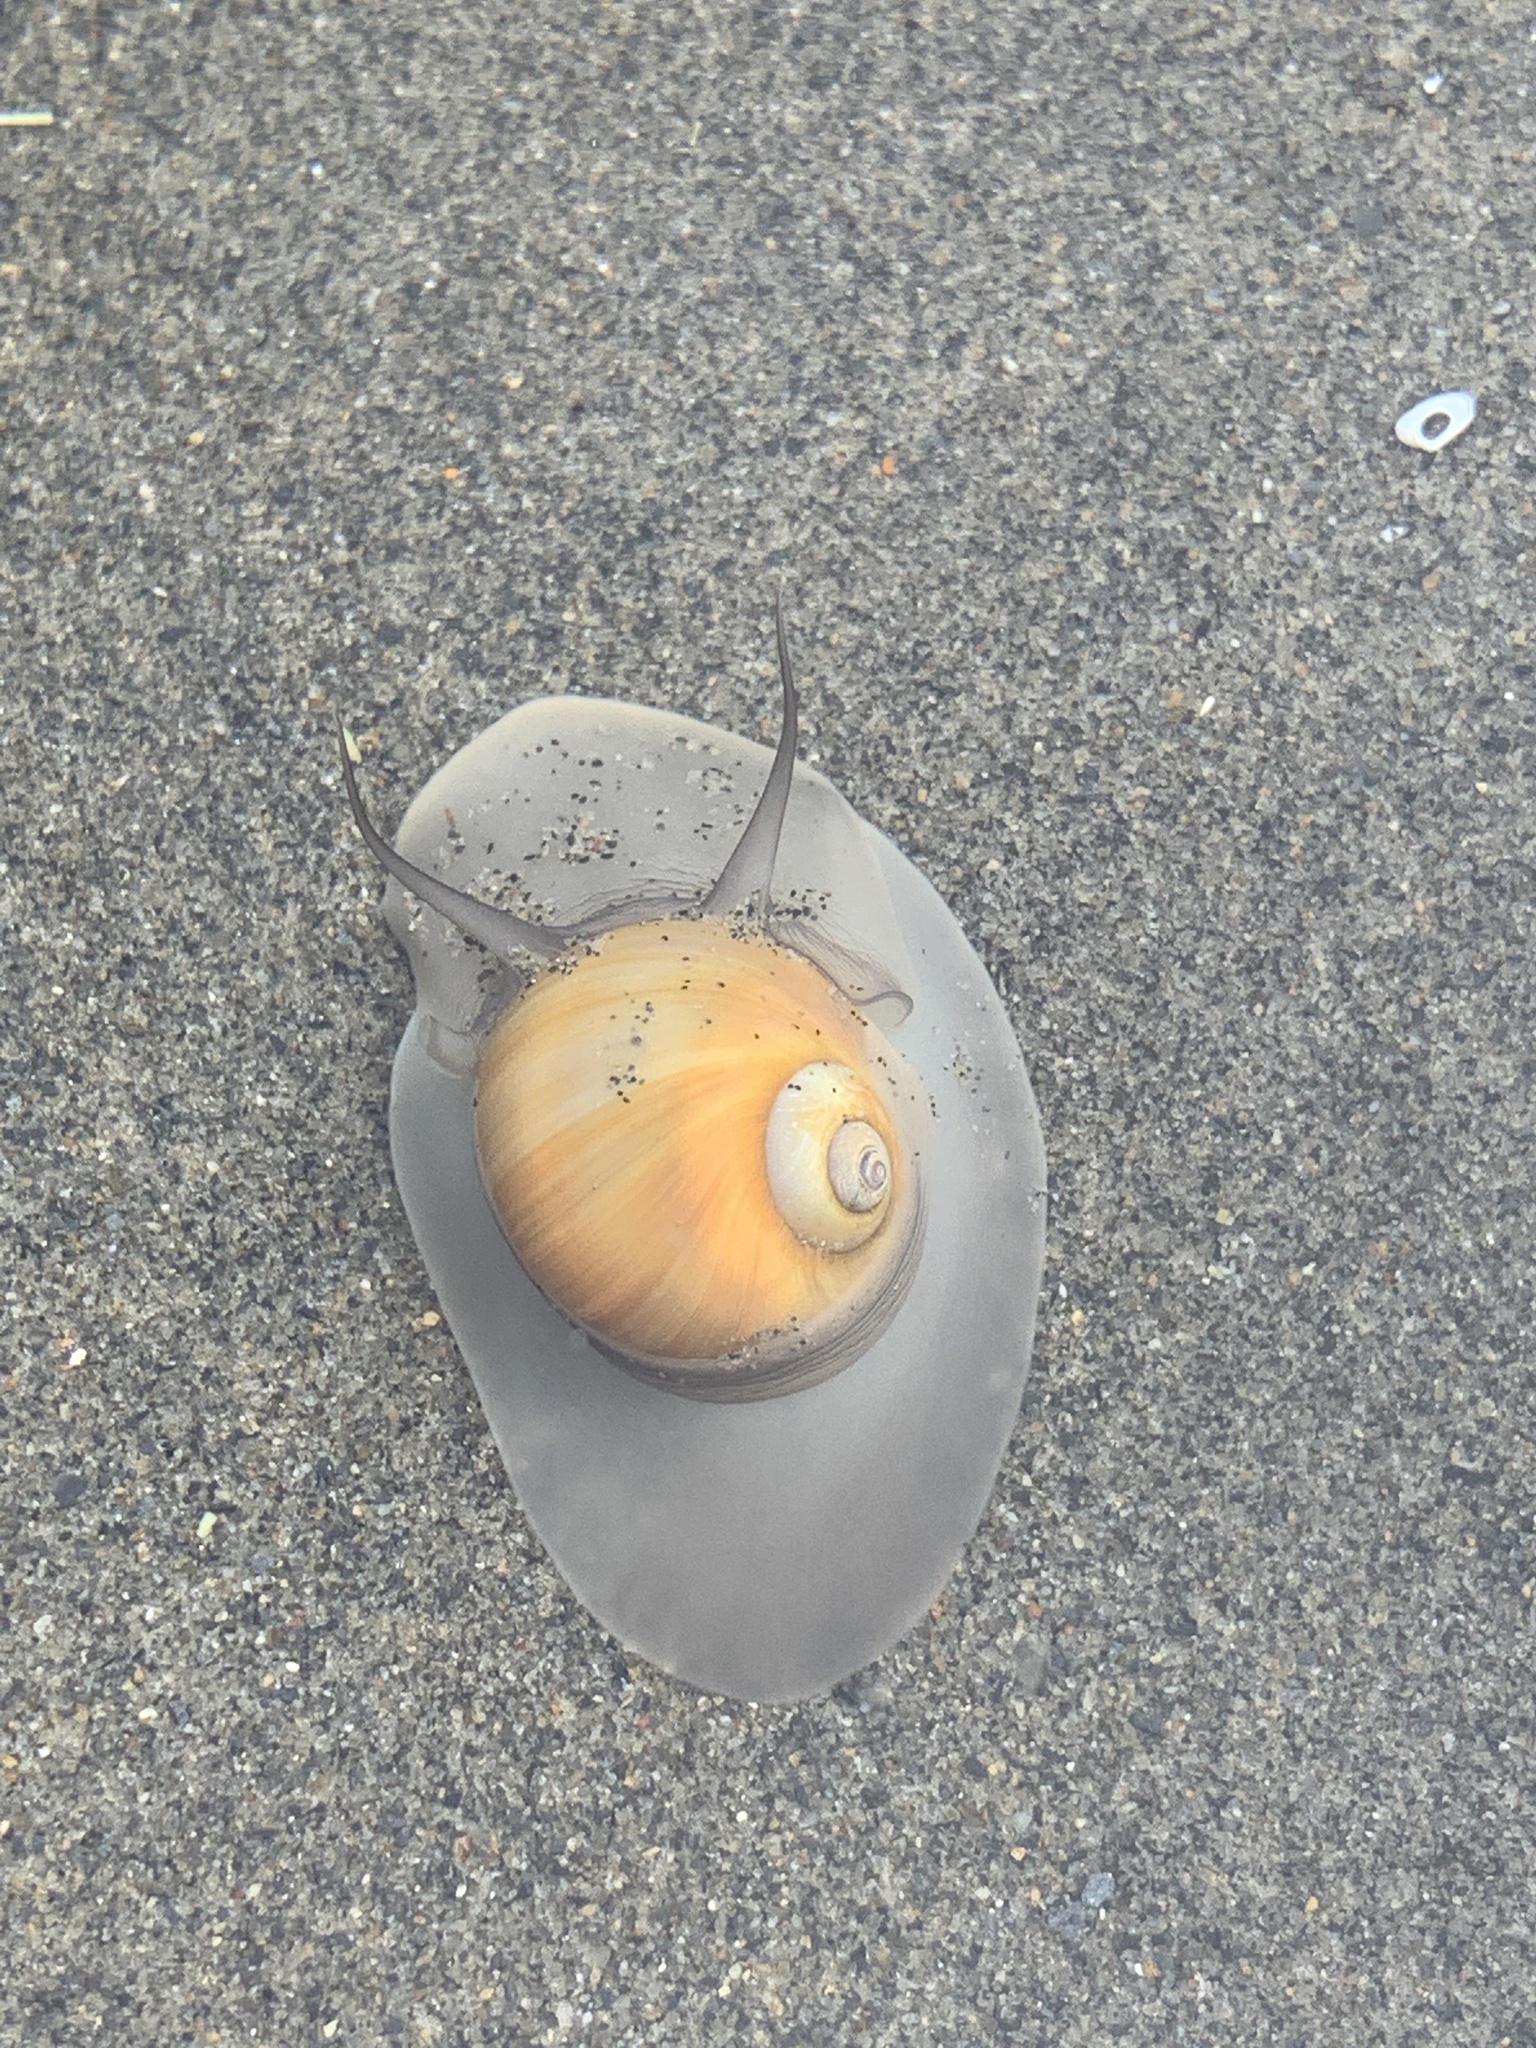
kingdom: Animalia
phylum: Mollusca
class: Gastropoda
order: Littorinimorpha
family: Naticidae
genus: Euspira
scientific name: Euspira heros
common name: Common northern moonsnail
